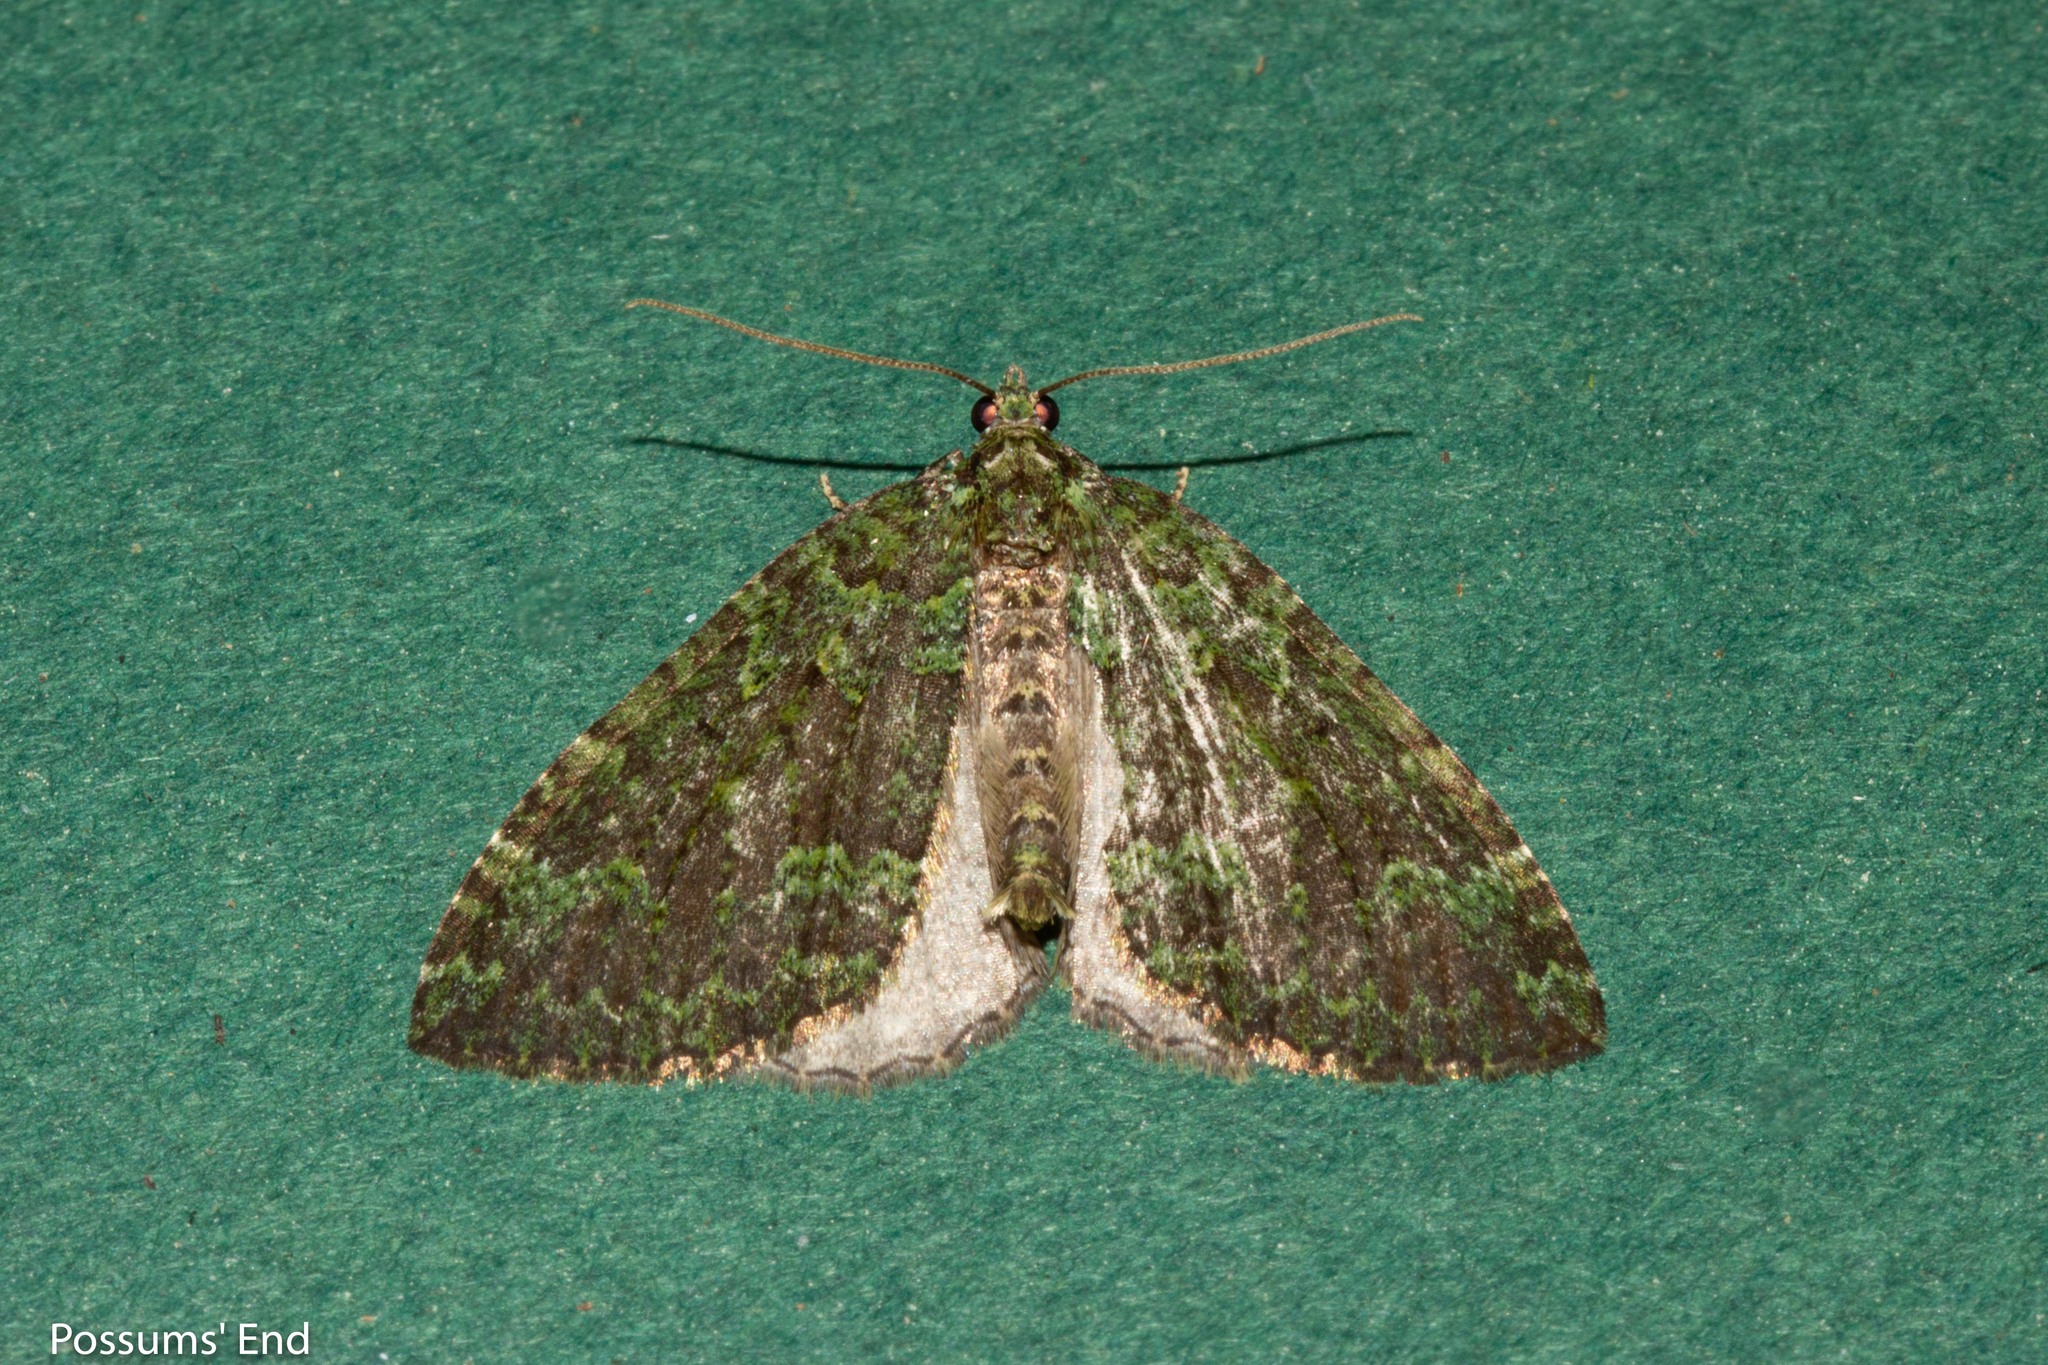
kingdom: Animalia
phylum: Arthropoda
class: Insecta
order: Lepidoptera
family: Geometridae
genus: Austrocidaria
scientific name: Austrocidaria callichlora
